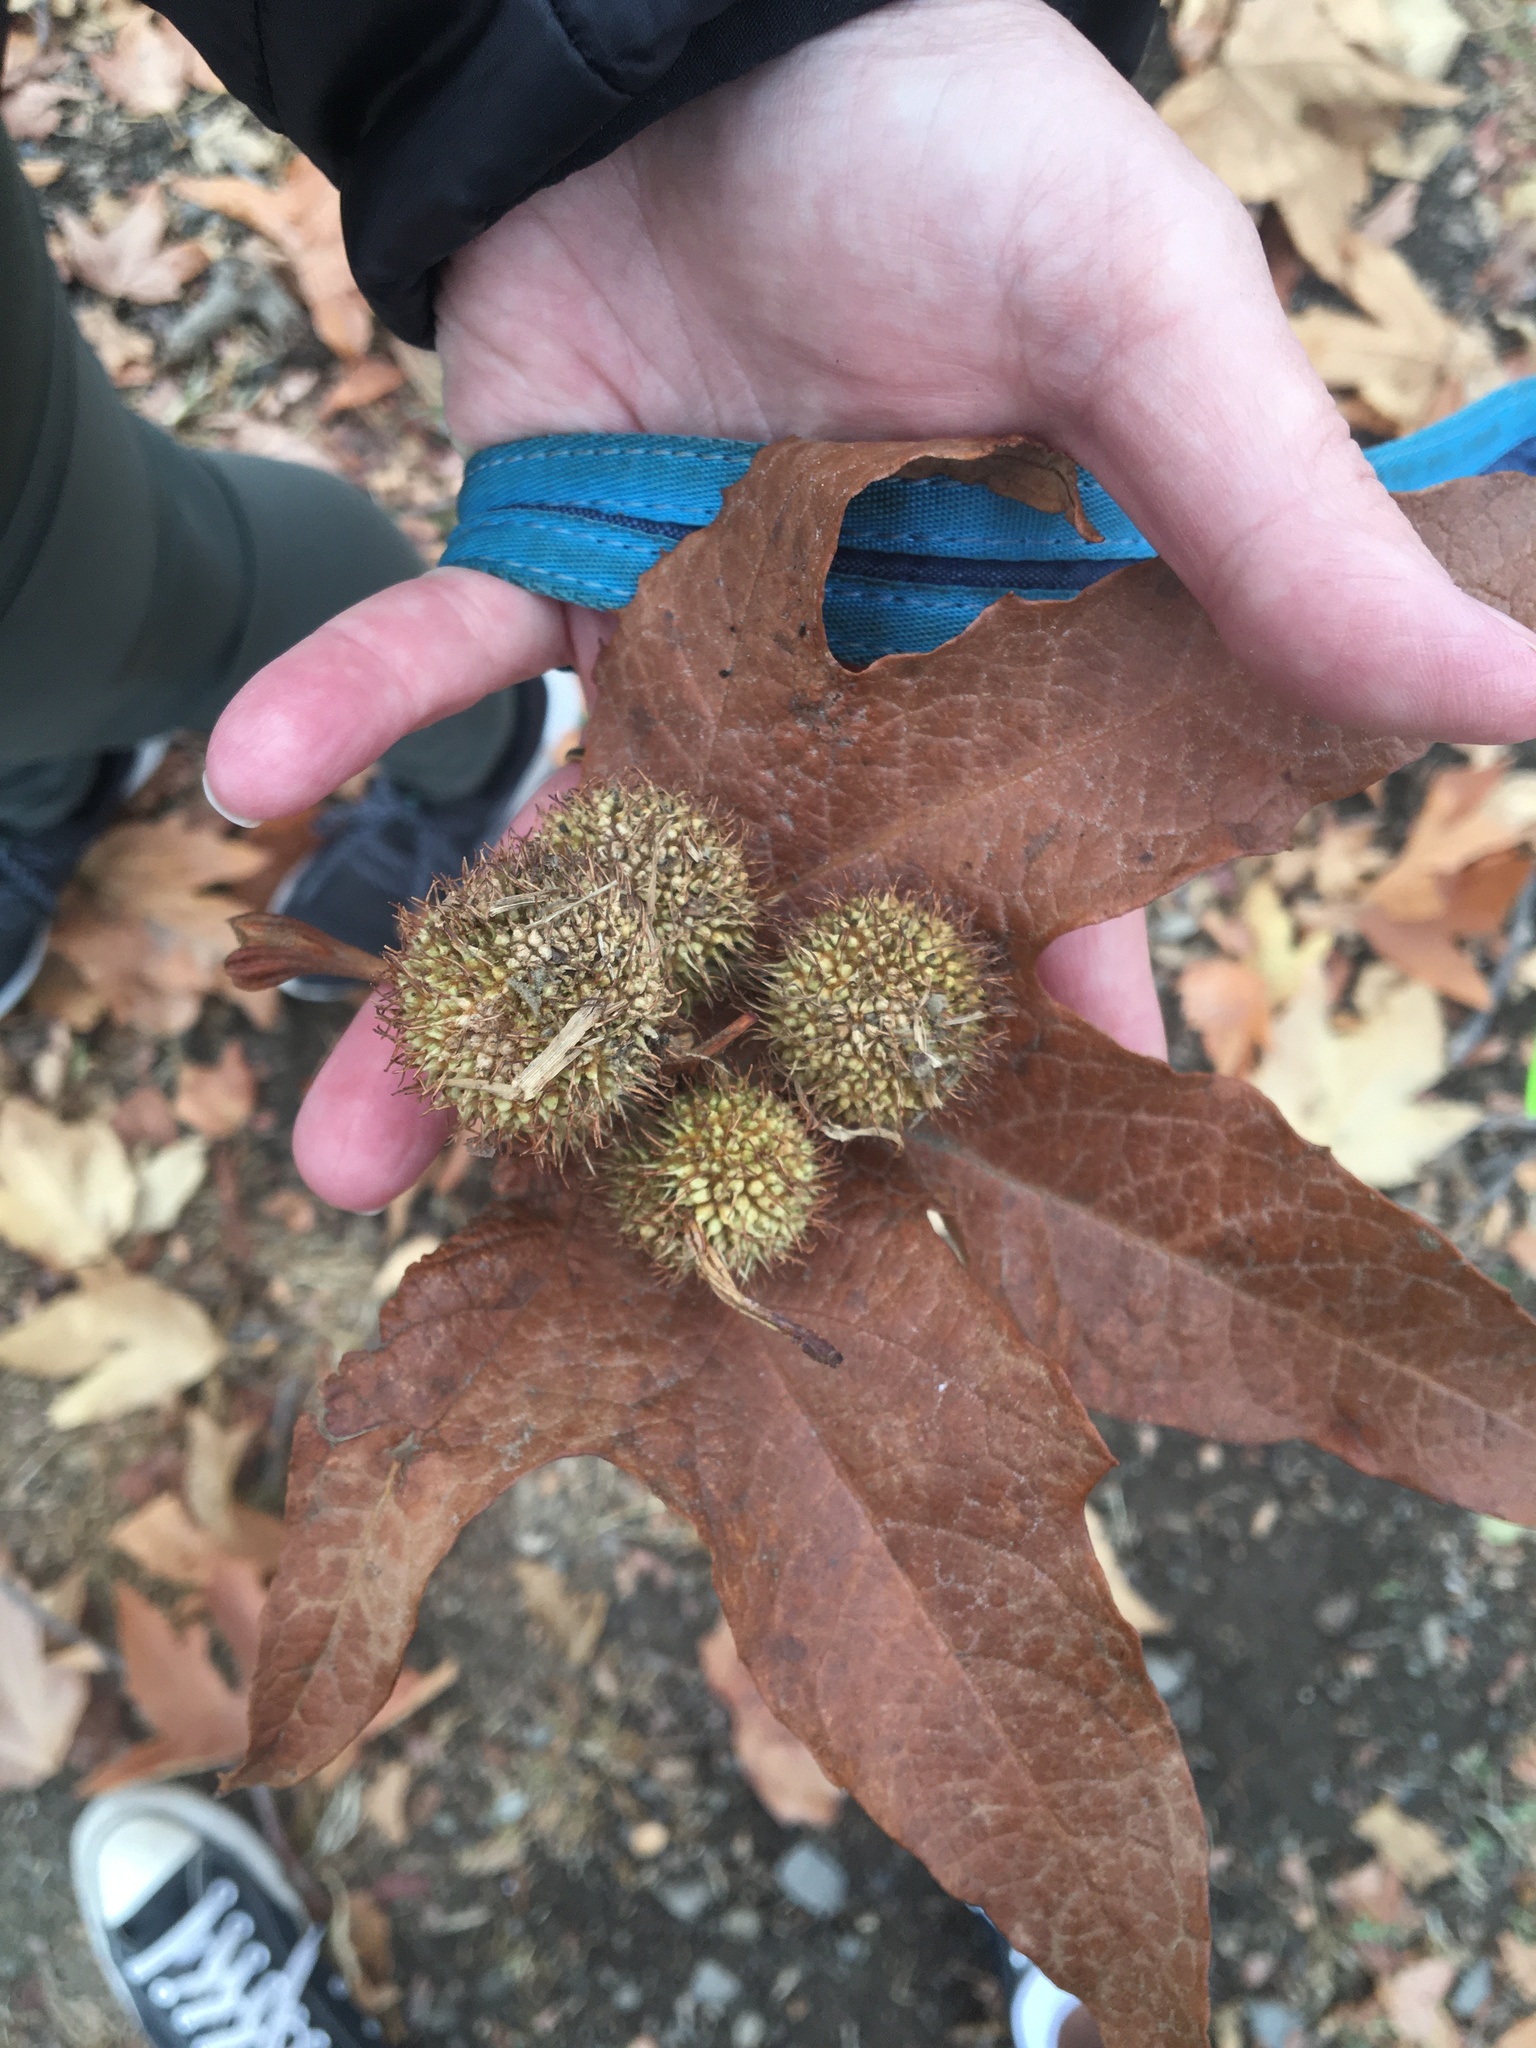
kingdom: Plantae
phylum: Tracheophyta
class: Magnoliopsida
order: Proteales
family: Platanaceae
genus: Platanus
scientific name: Platanus racemosa
